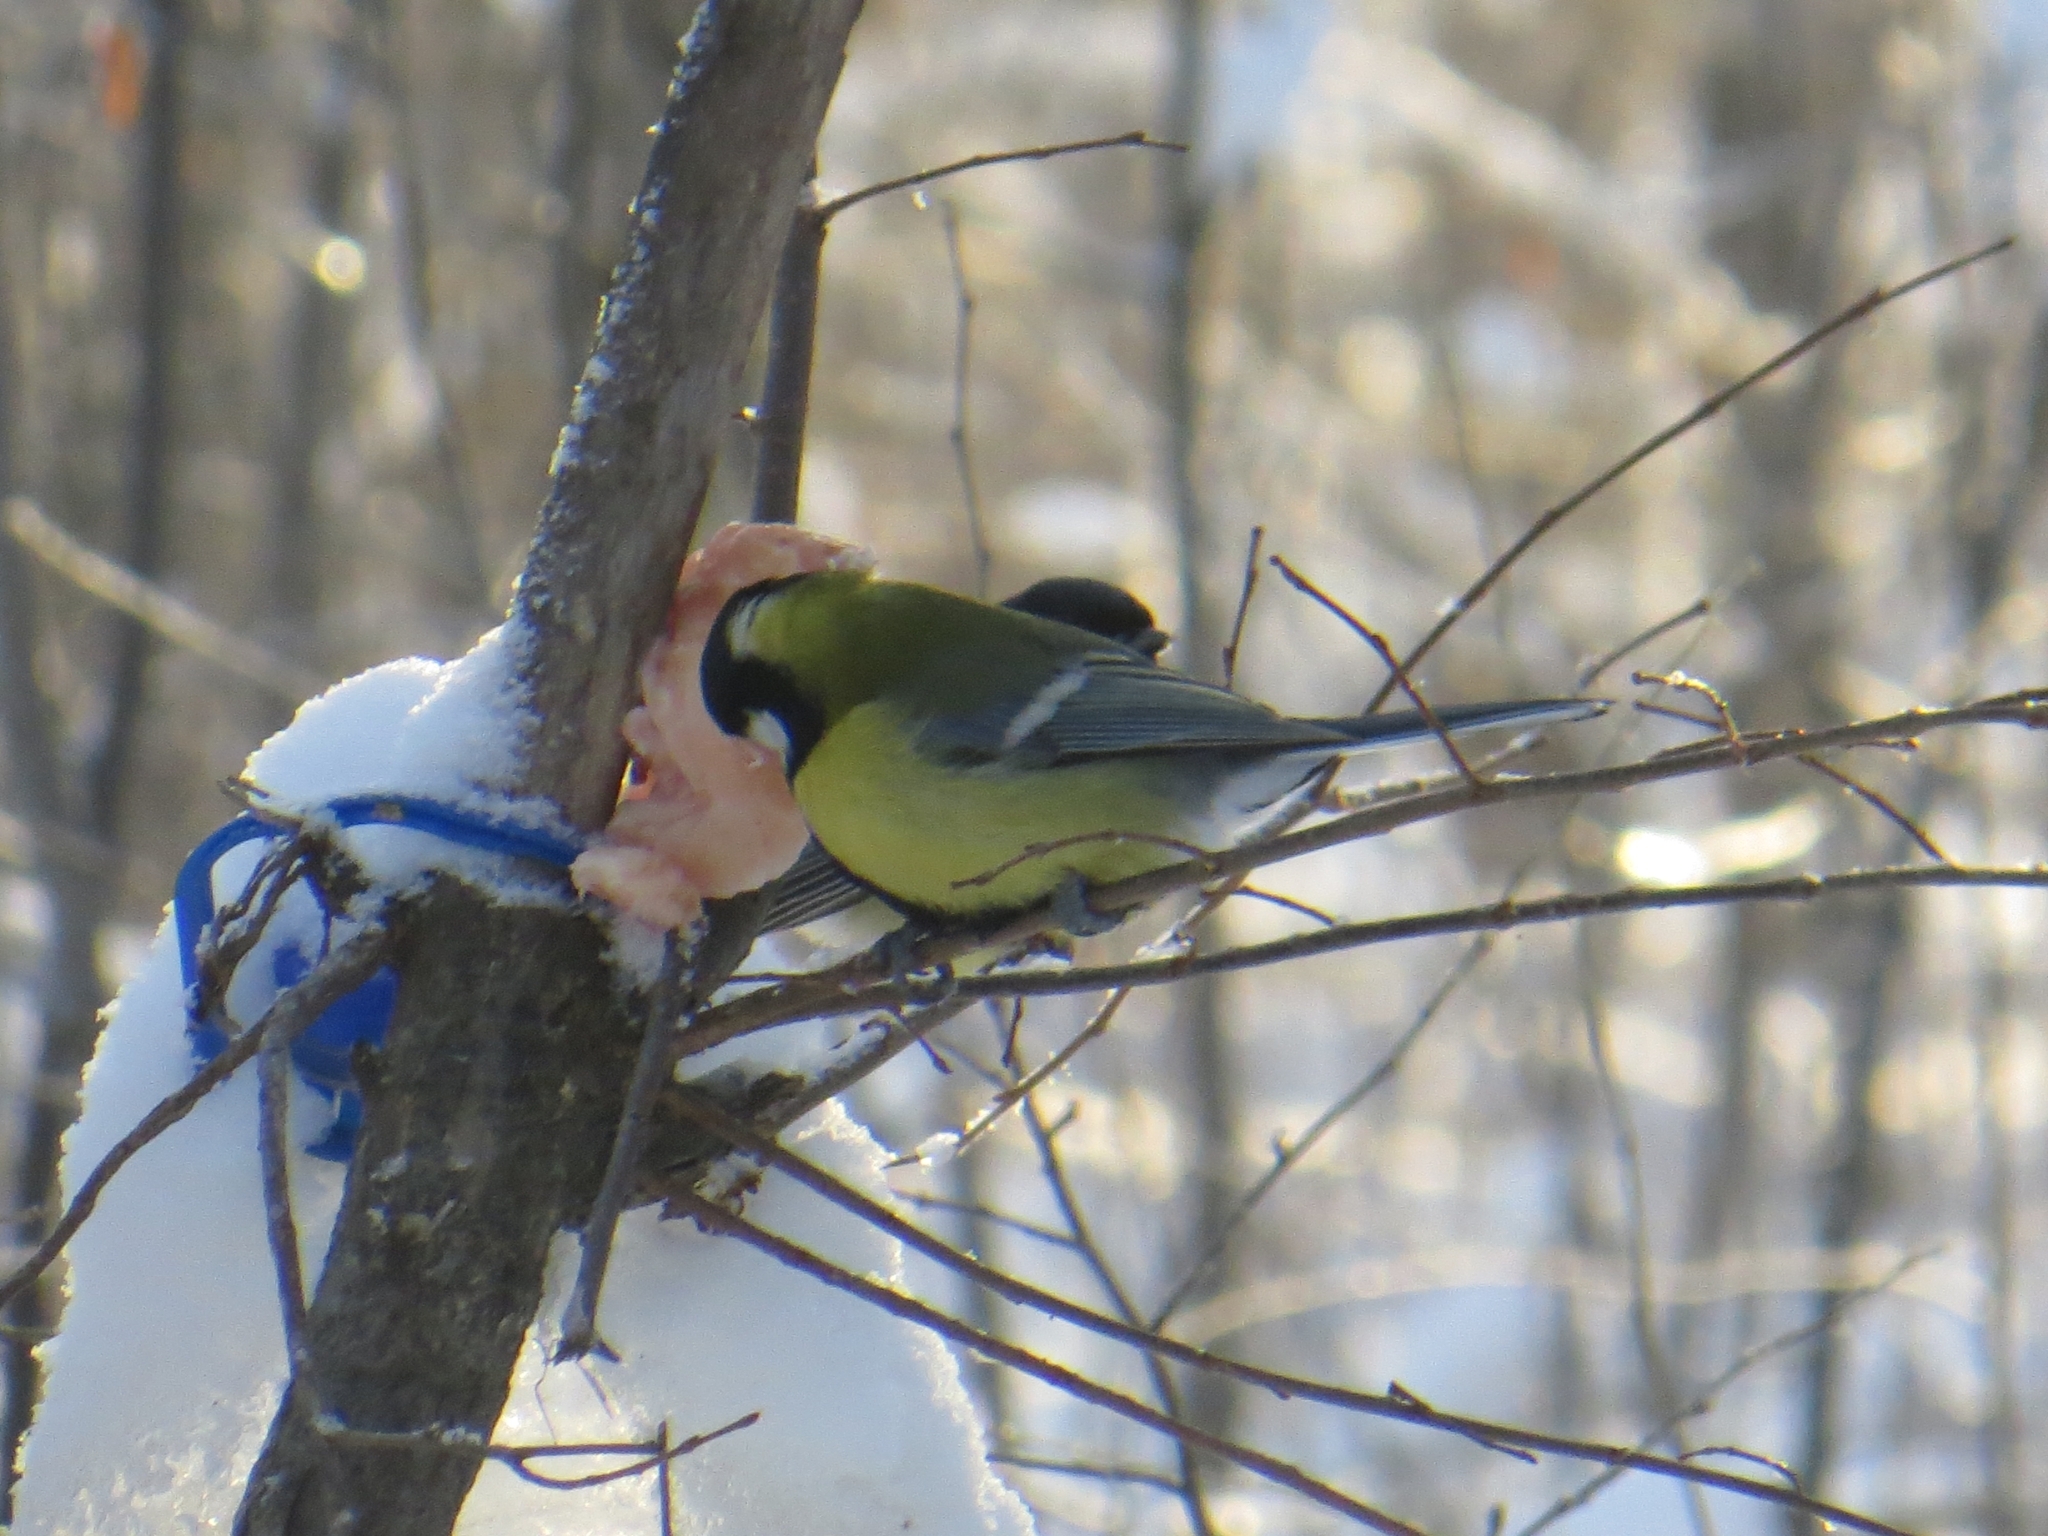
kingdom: Animalia
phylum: Chordata
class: Aves
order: Passeriformes
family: Paridae
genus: Parus
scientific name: Parus major
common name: Great tit
